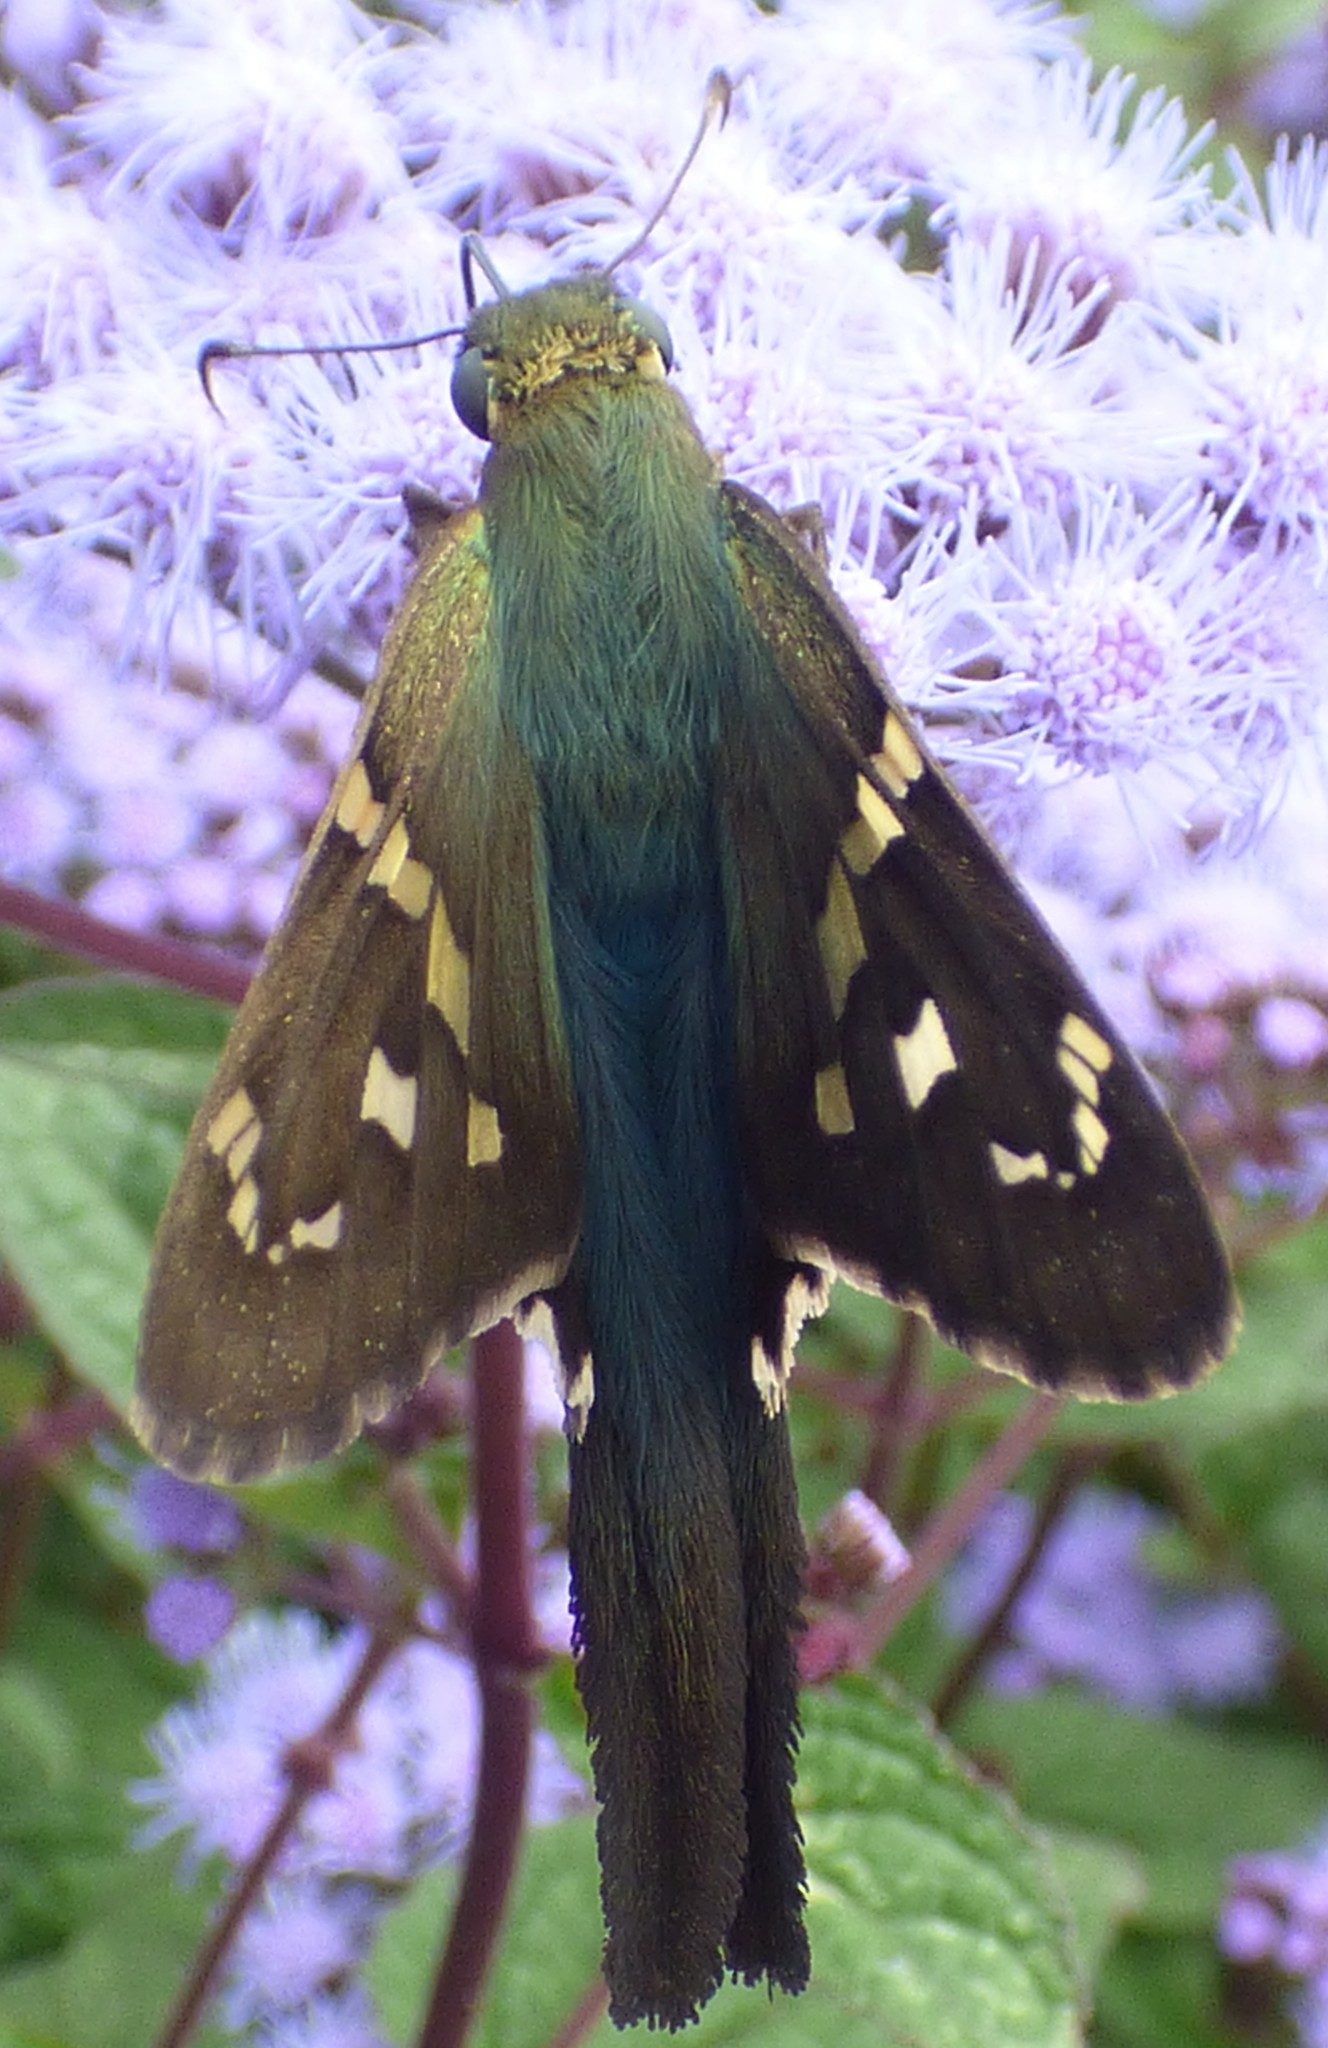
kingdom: Animalia
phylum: Arthropoda
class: Insecta
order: Lepidoptera
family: Hesperiidae
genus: Urbanus
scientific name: Urbanus proteus
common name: Long-tailed skipper
